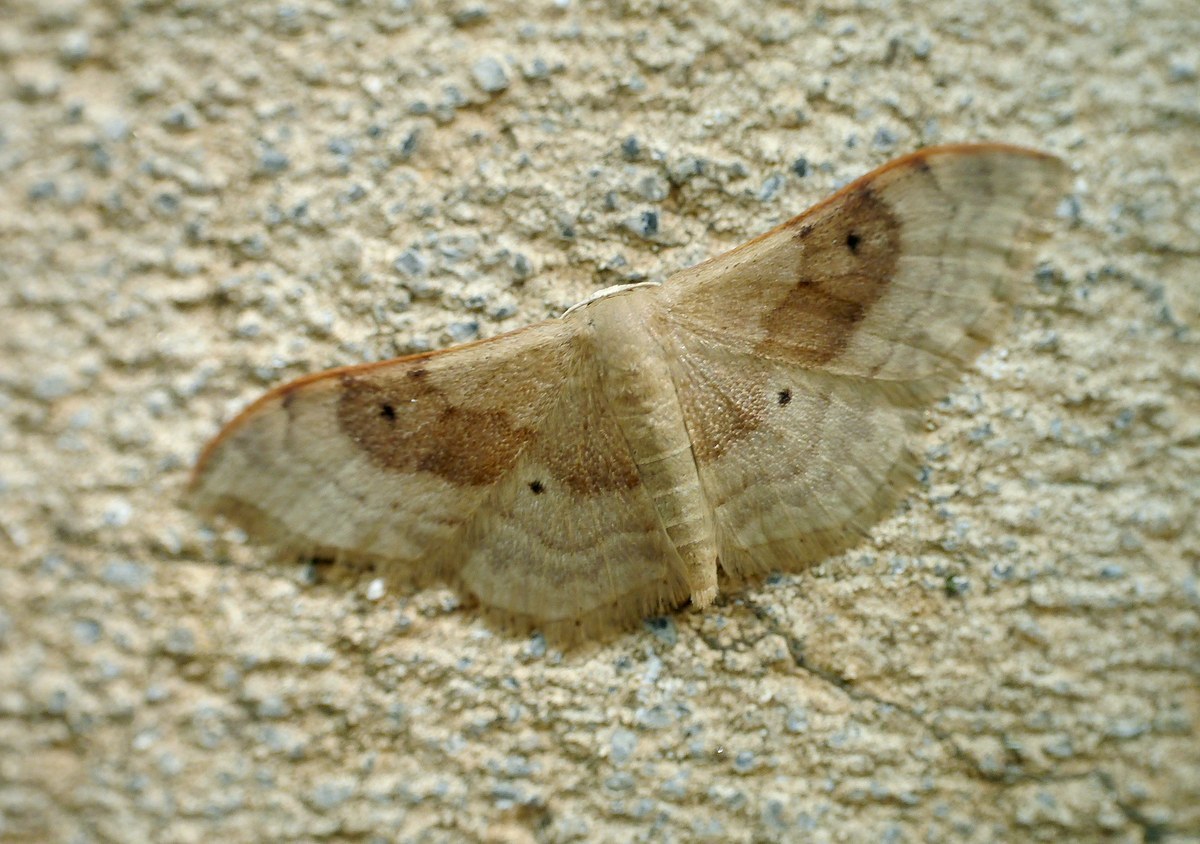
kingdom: Animalia
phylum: Arthropoda
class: Insecta
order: Lepidoptera
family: Geometridae
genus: Idaea
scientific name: Idaea degeneraria
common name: Portland ribbon wave
